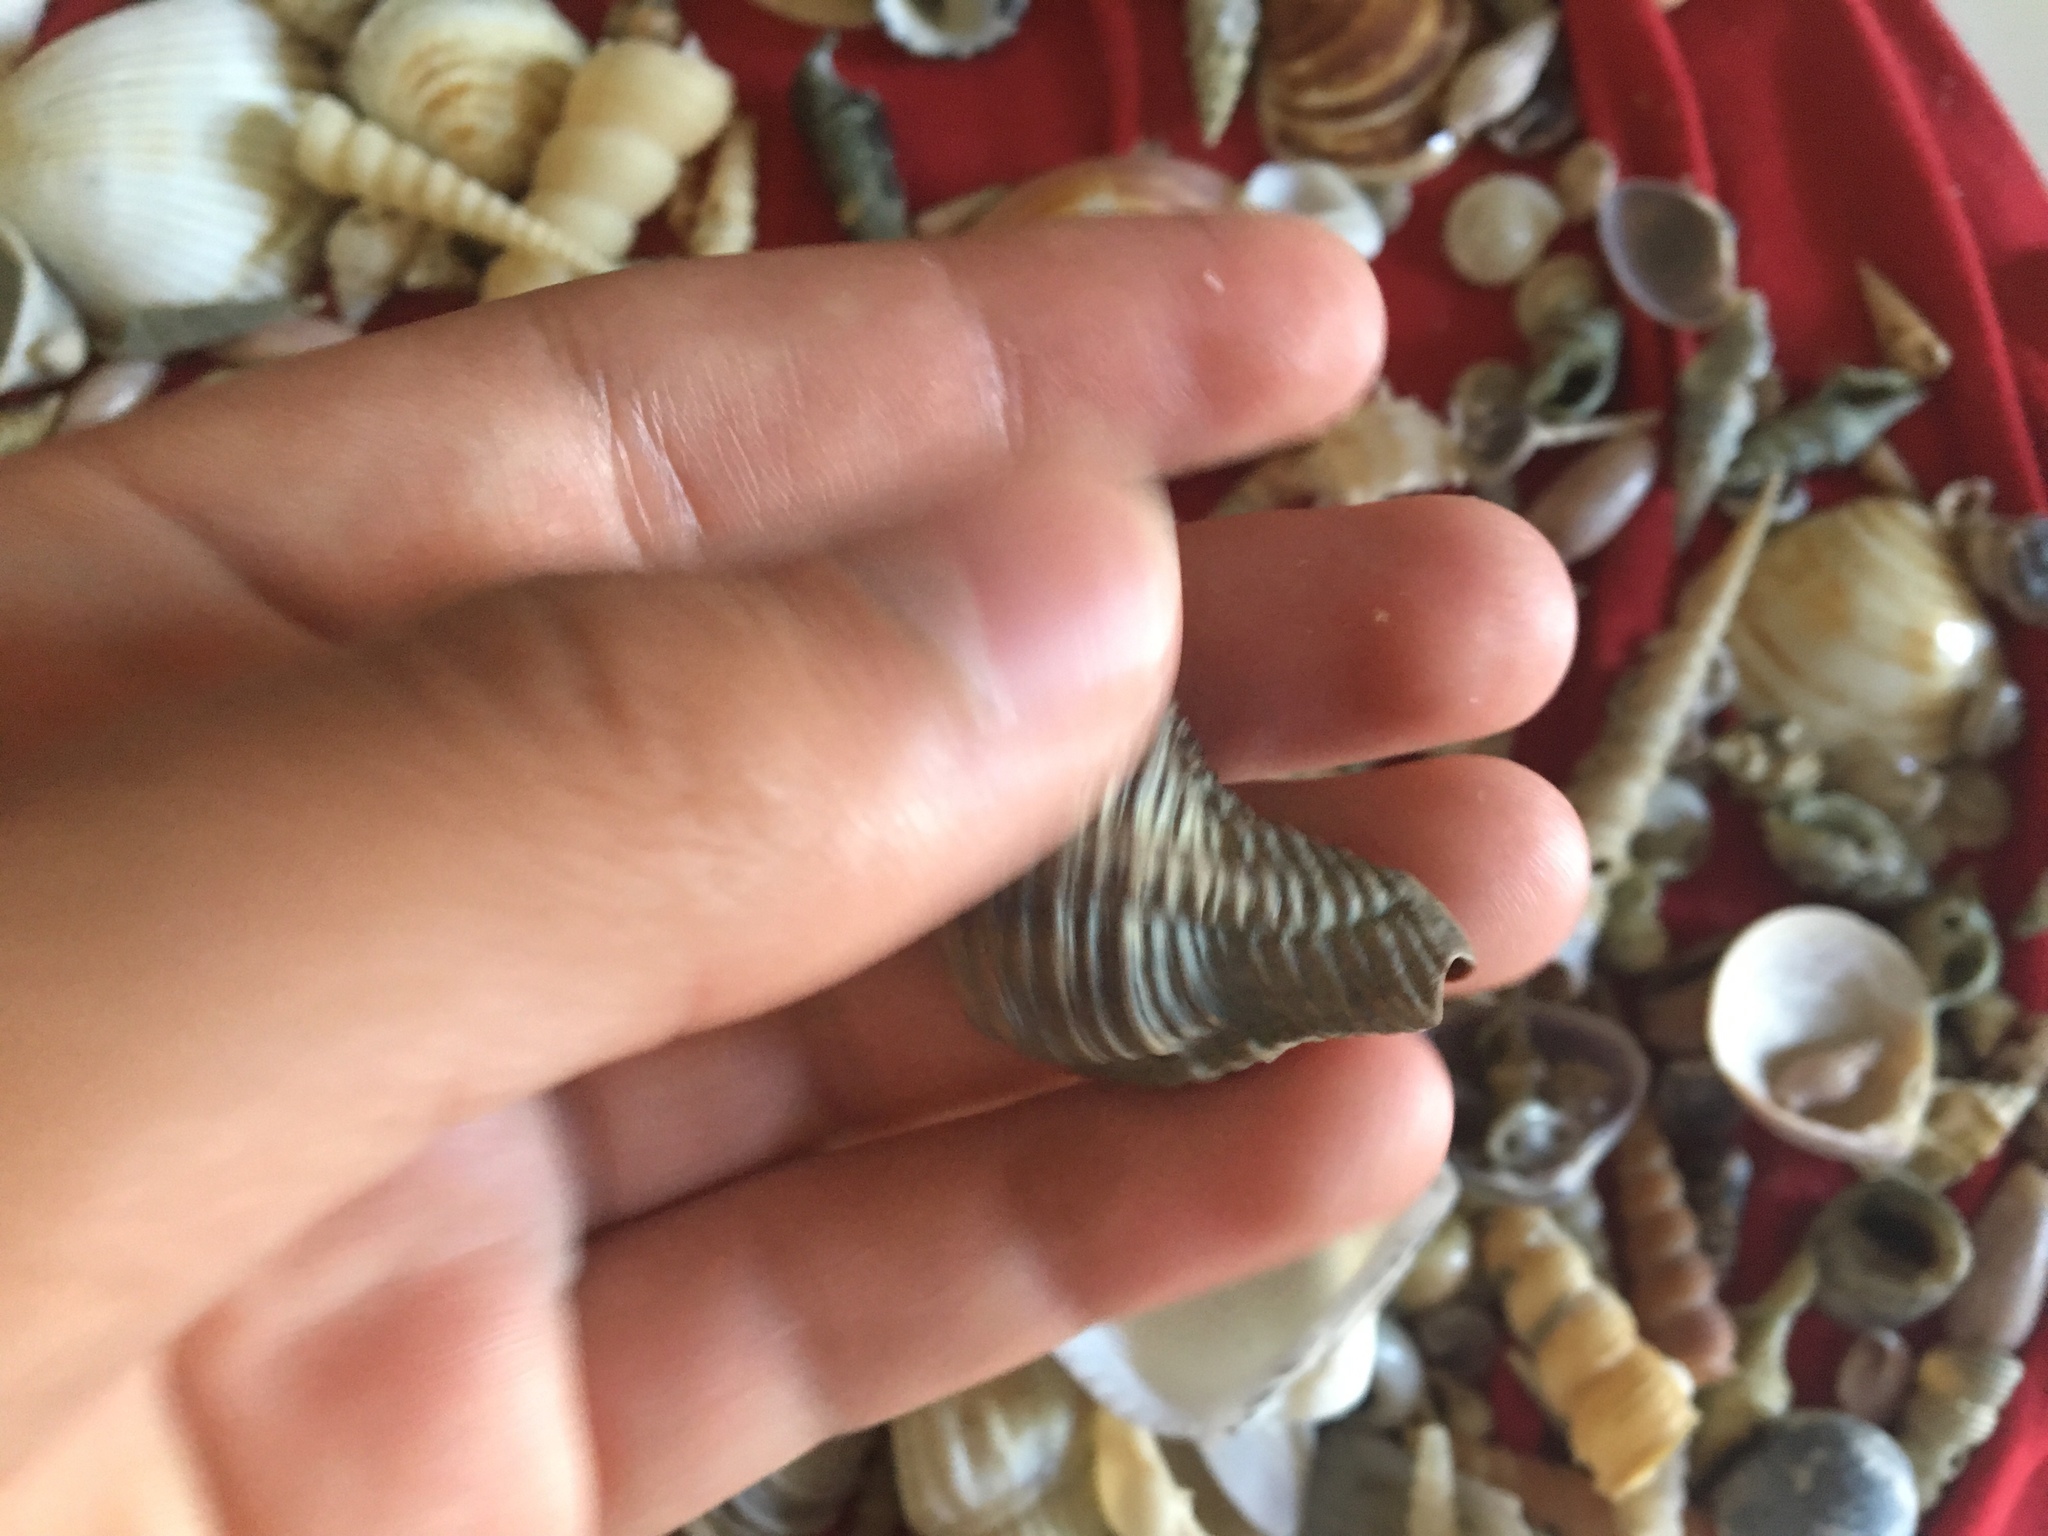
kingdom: Animalia
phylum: Mollusca
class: Gastropoda
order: Neogastropoda
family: Muricidae
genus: Chicoreus
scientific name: Chicoreus capucinus
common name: Mangrove murex
